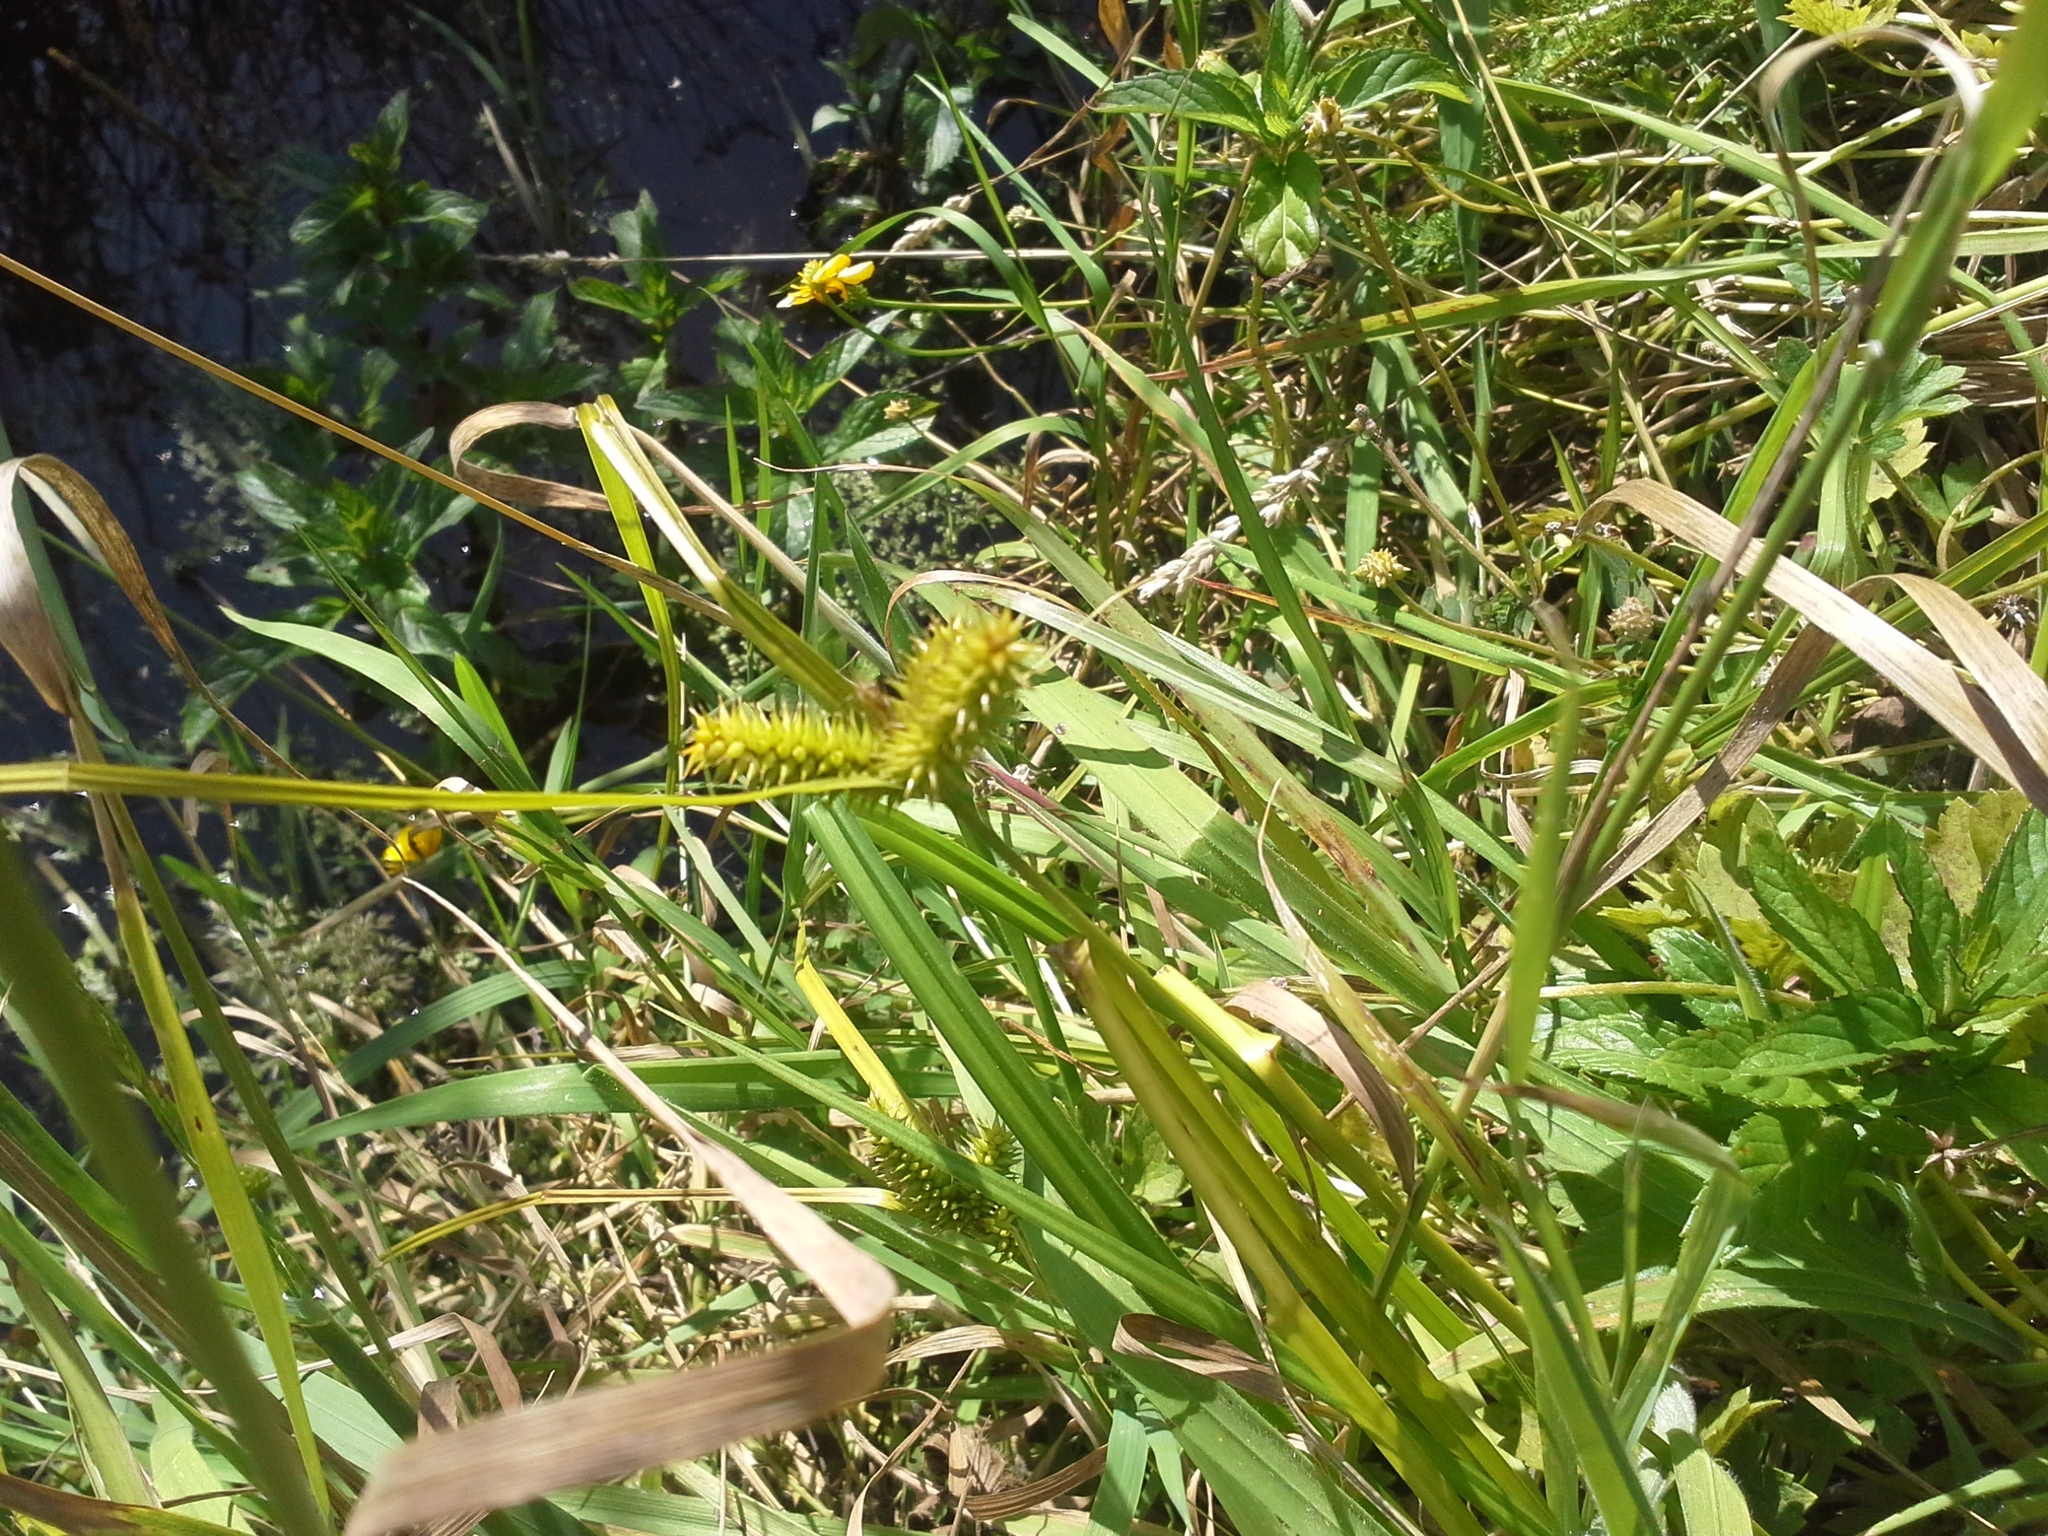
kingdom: Plantae
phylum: Tracheophyta
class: Liliopsida
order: Poales
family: Cyperaceae
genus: Carex
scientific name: Carex maorica
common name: Maori sedge
